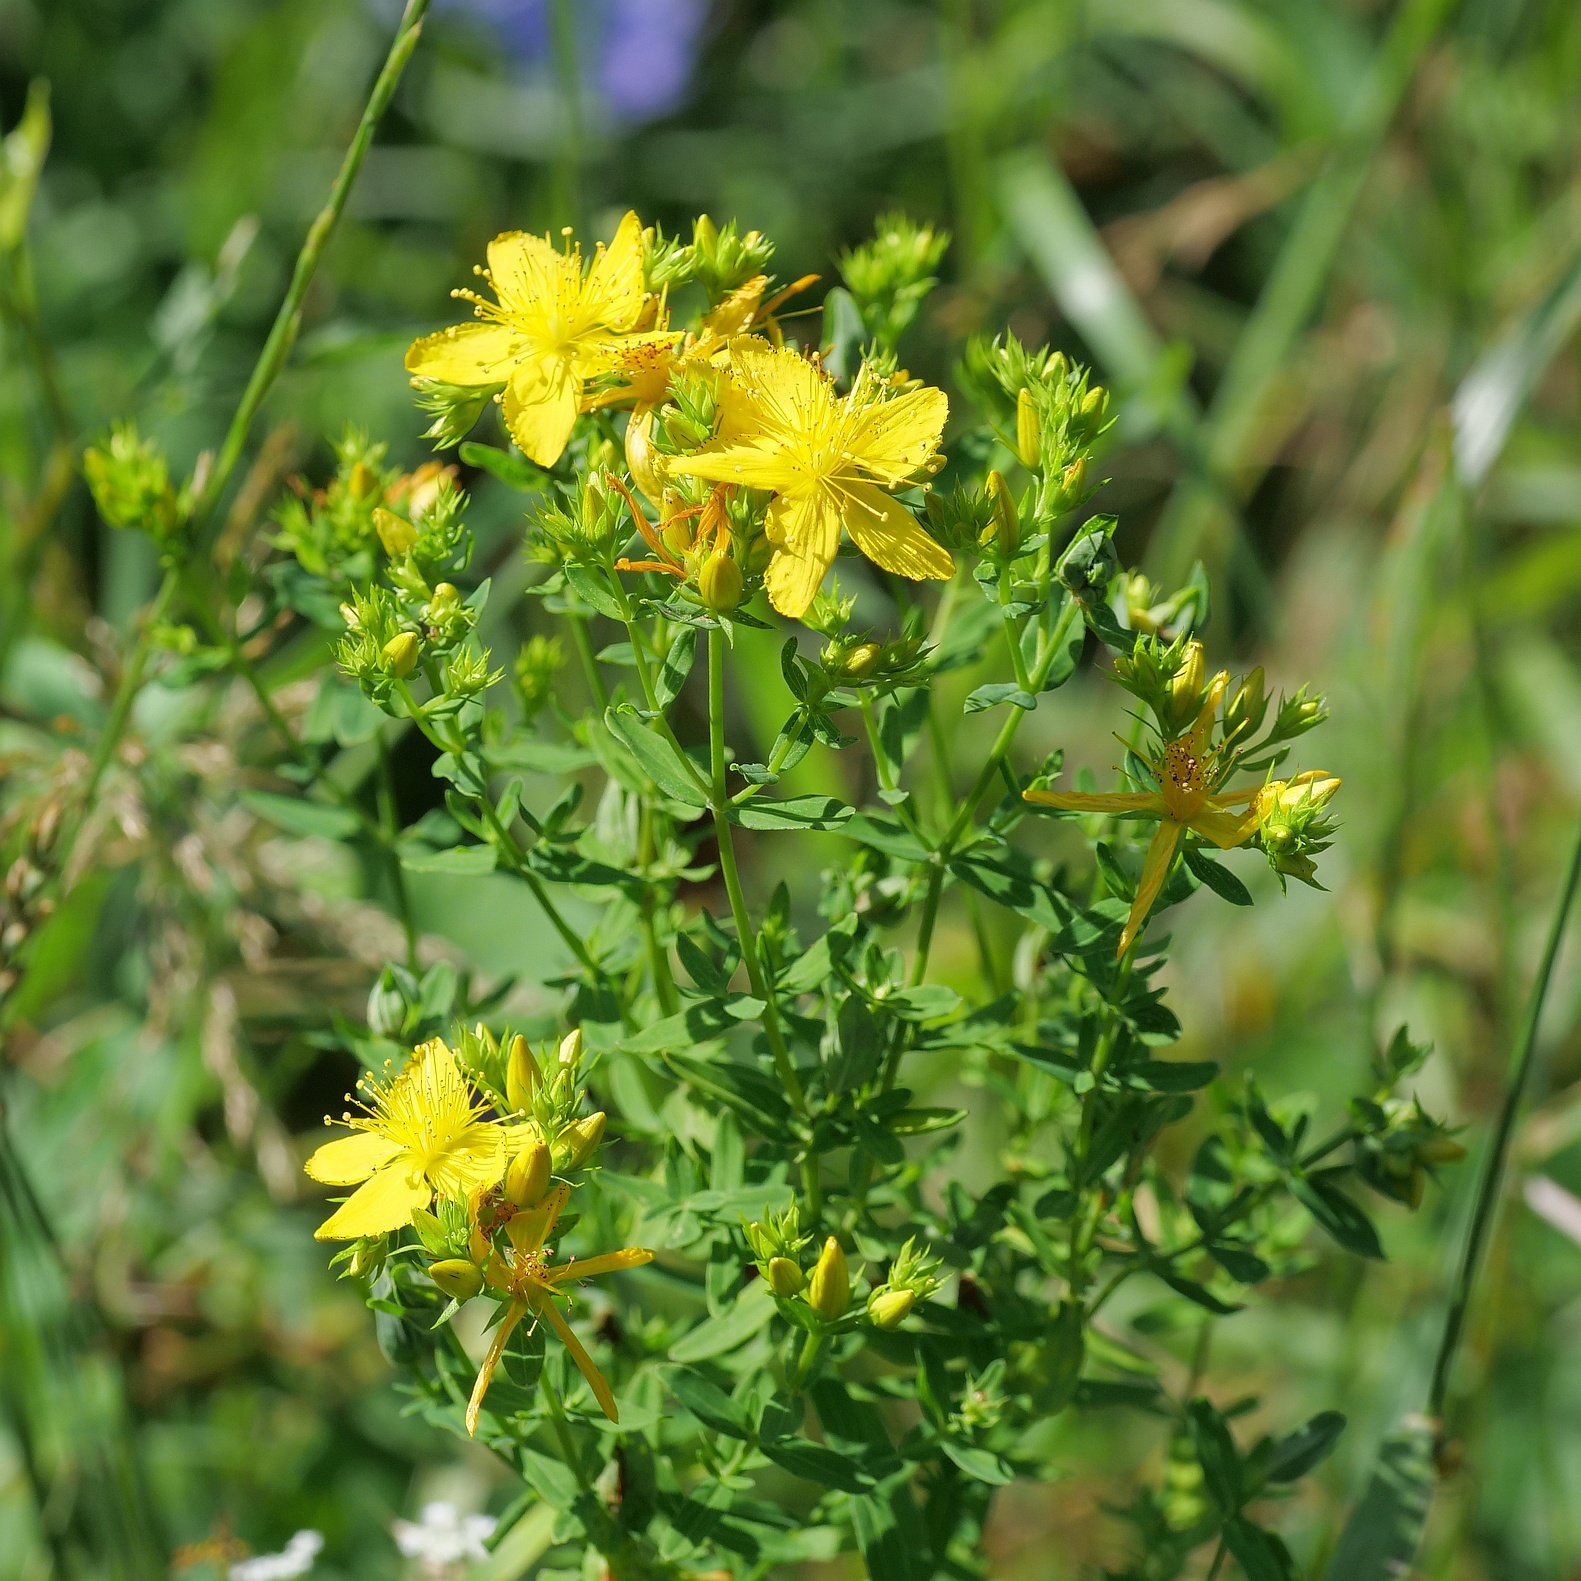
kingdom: Plantae
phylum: Tracheophyta
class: Magnoliopsida
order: Malpighiales
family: Hypericaceae
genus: Hypericum
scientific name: Hypericum perforatum
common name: Common st. johnswort
